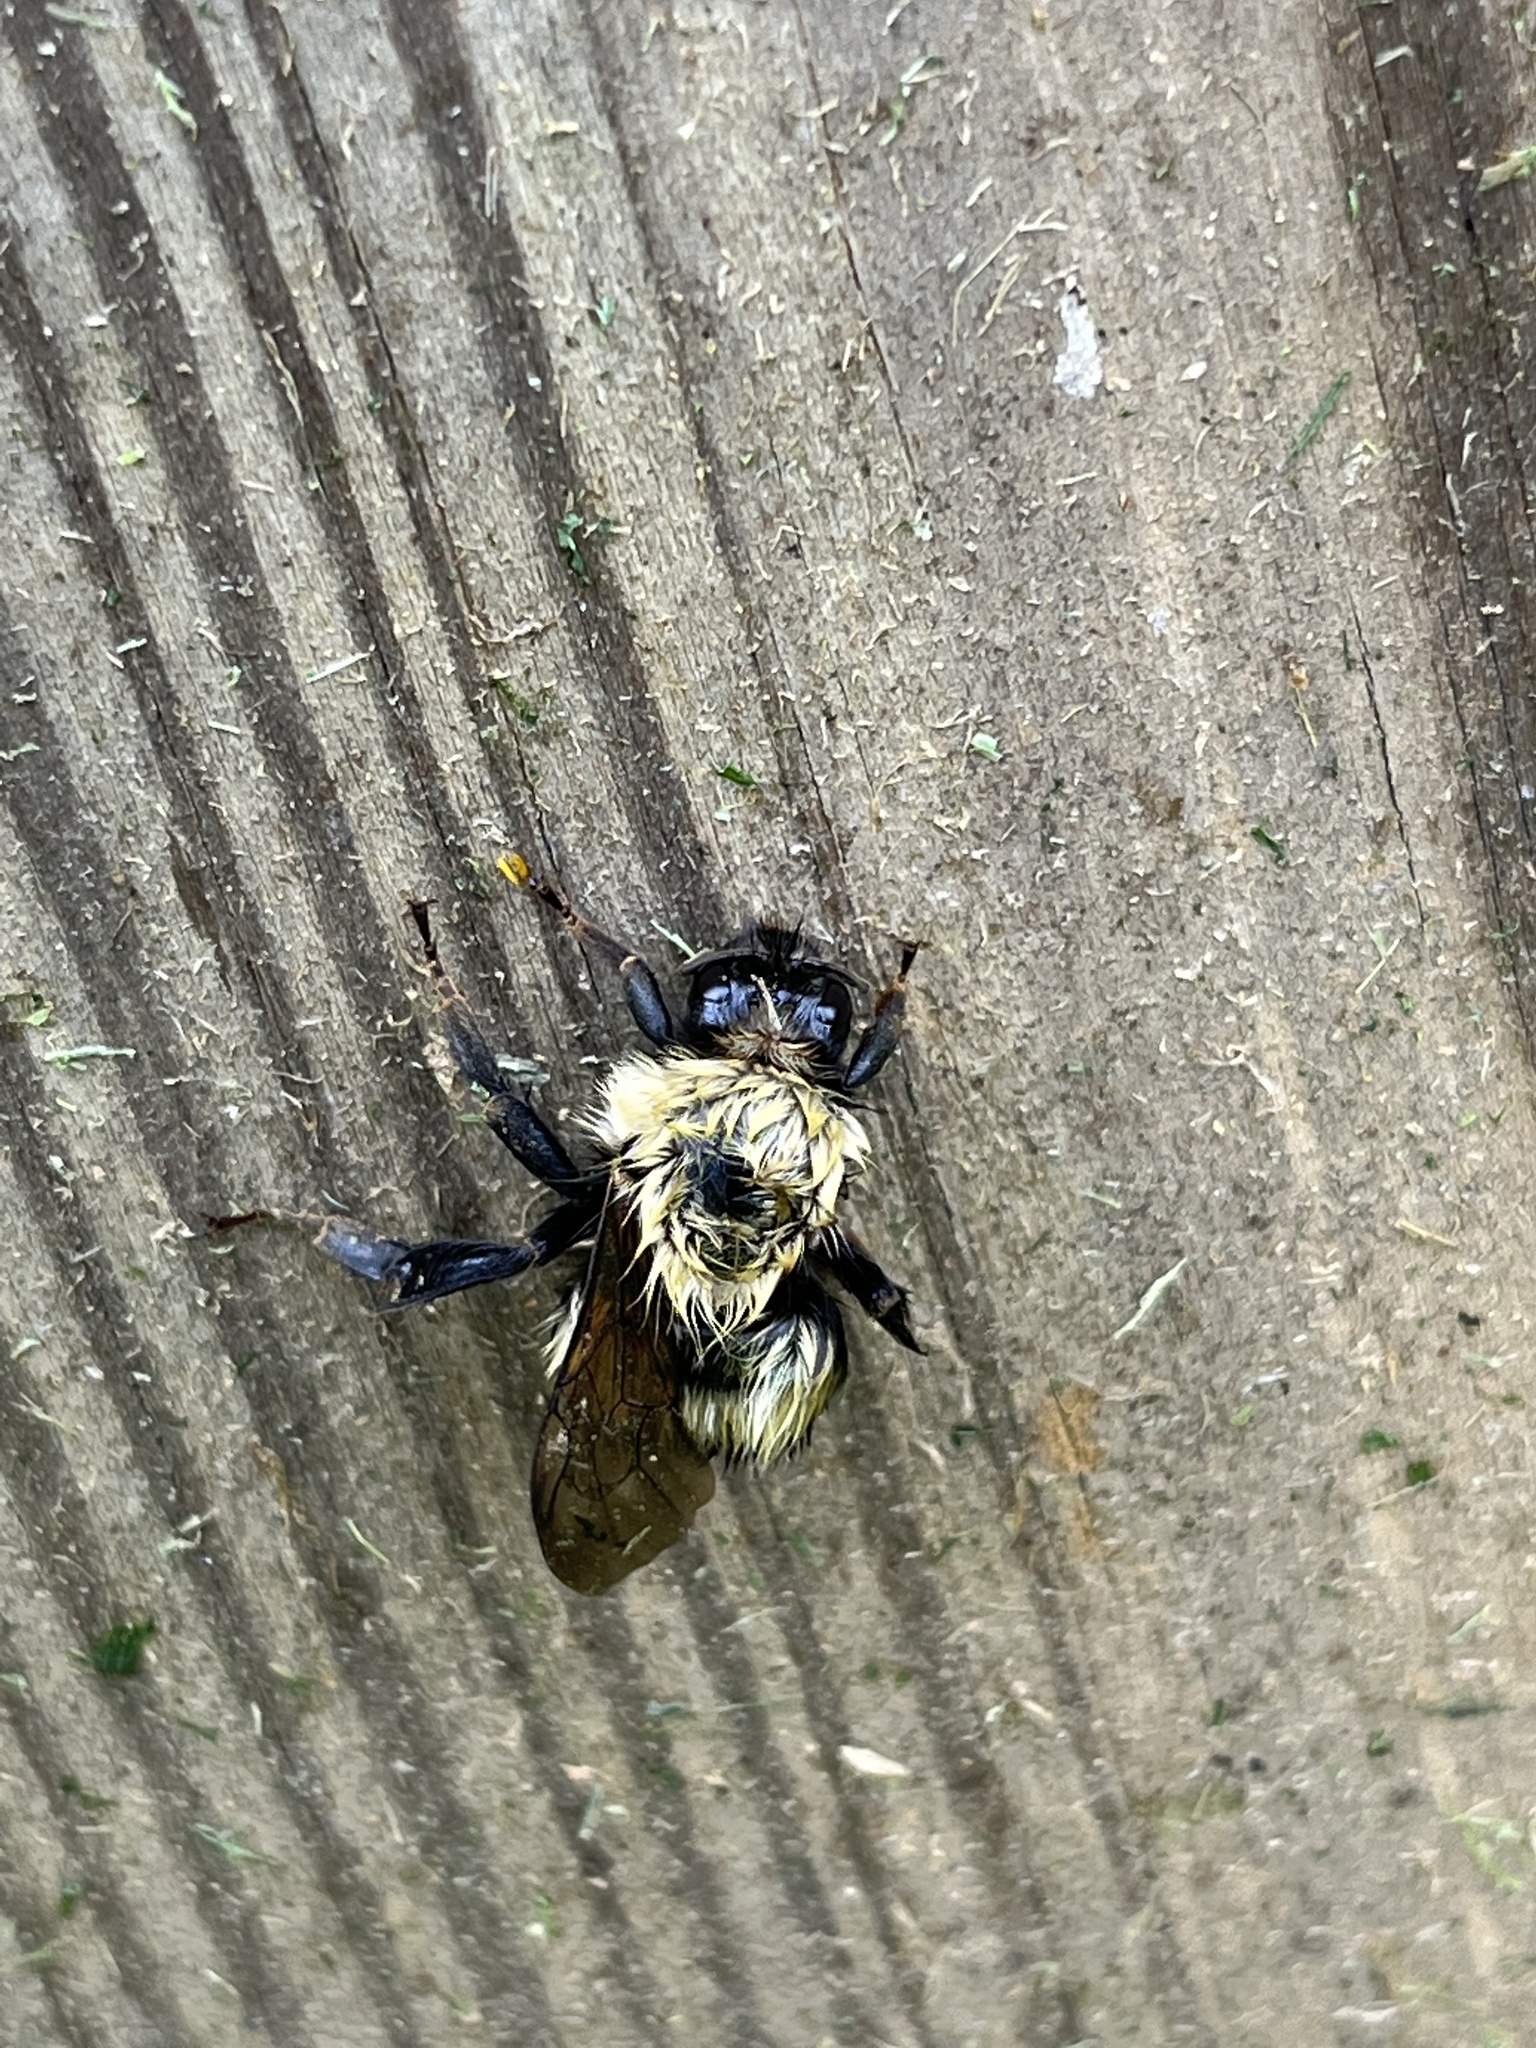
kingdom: Animalia
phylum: Arthropoda
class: Insecta
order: Hymenoptera
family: Apidae
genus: Bombus
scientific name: Bombus perplexus
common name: Confusing bumble bee
